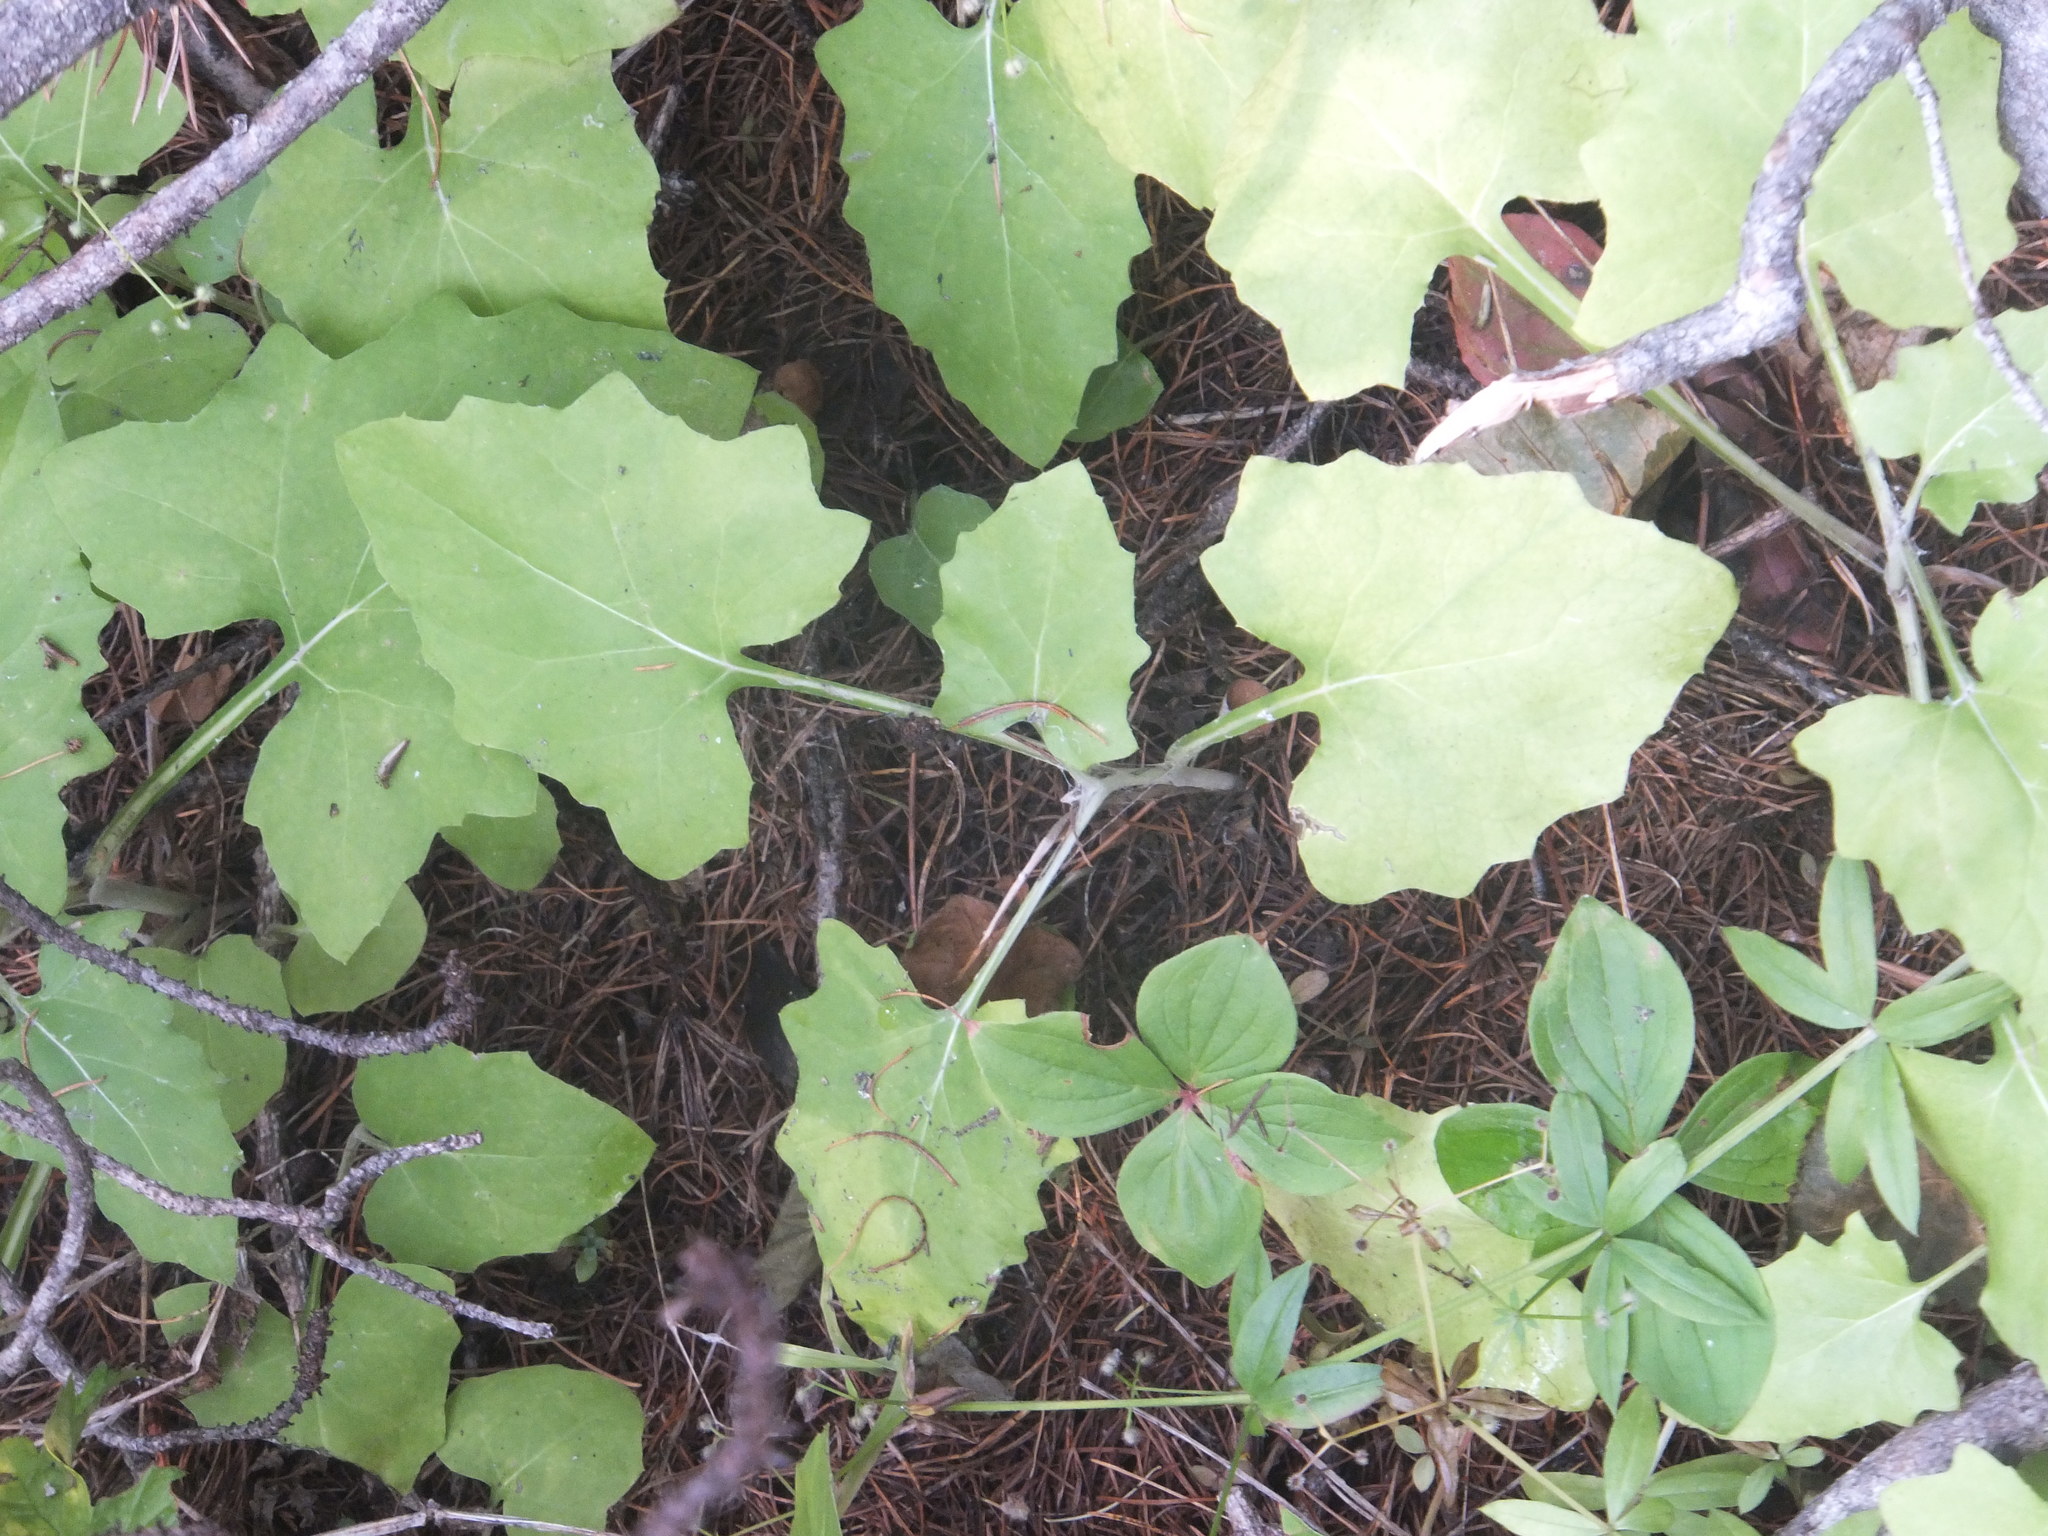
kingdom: Plantae
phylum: Tracheophyta
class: Magnoliopsida
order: Asterales
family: Asteraceae
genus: Adenocaulon
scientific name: Adenocaulon bicolor
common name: Trailplant
